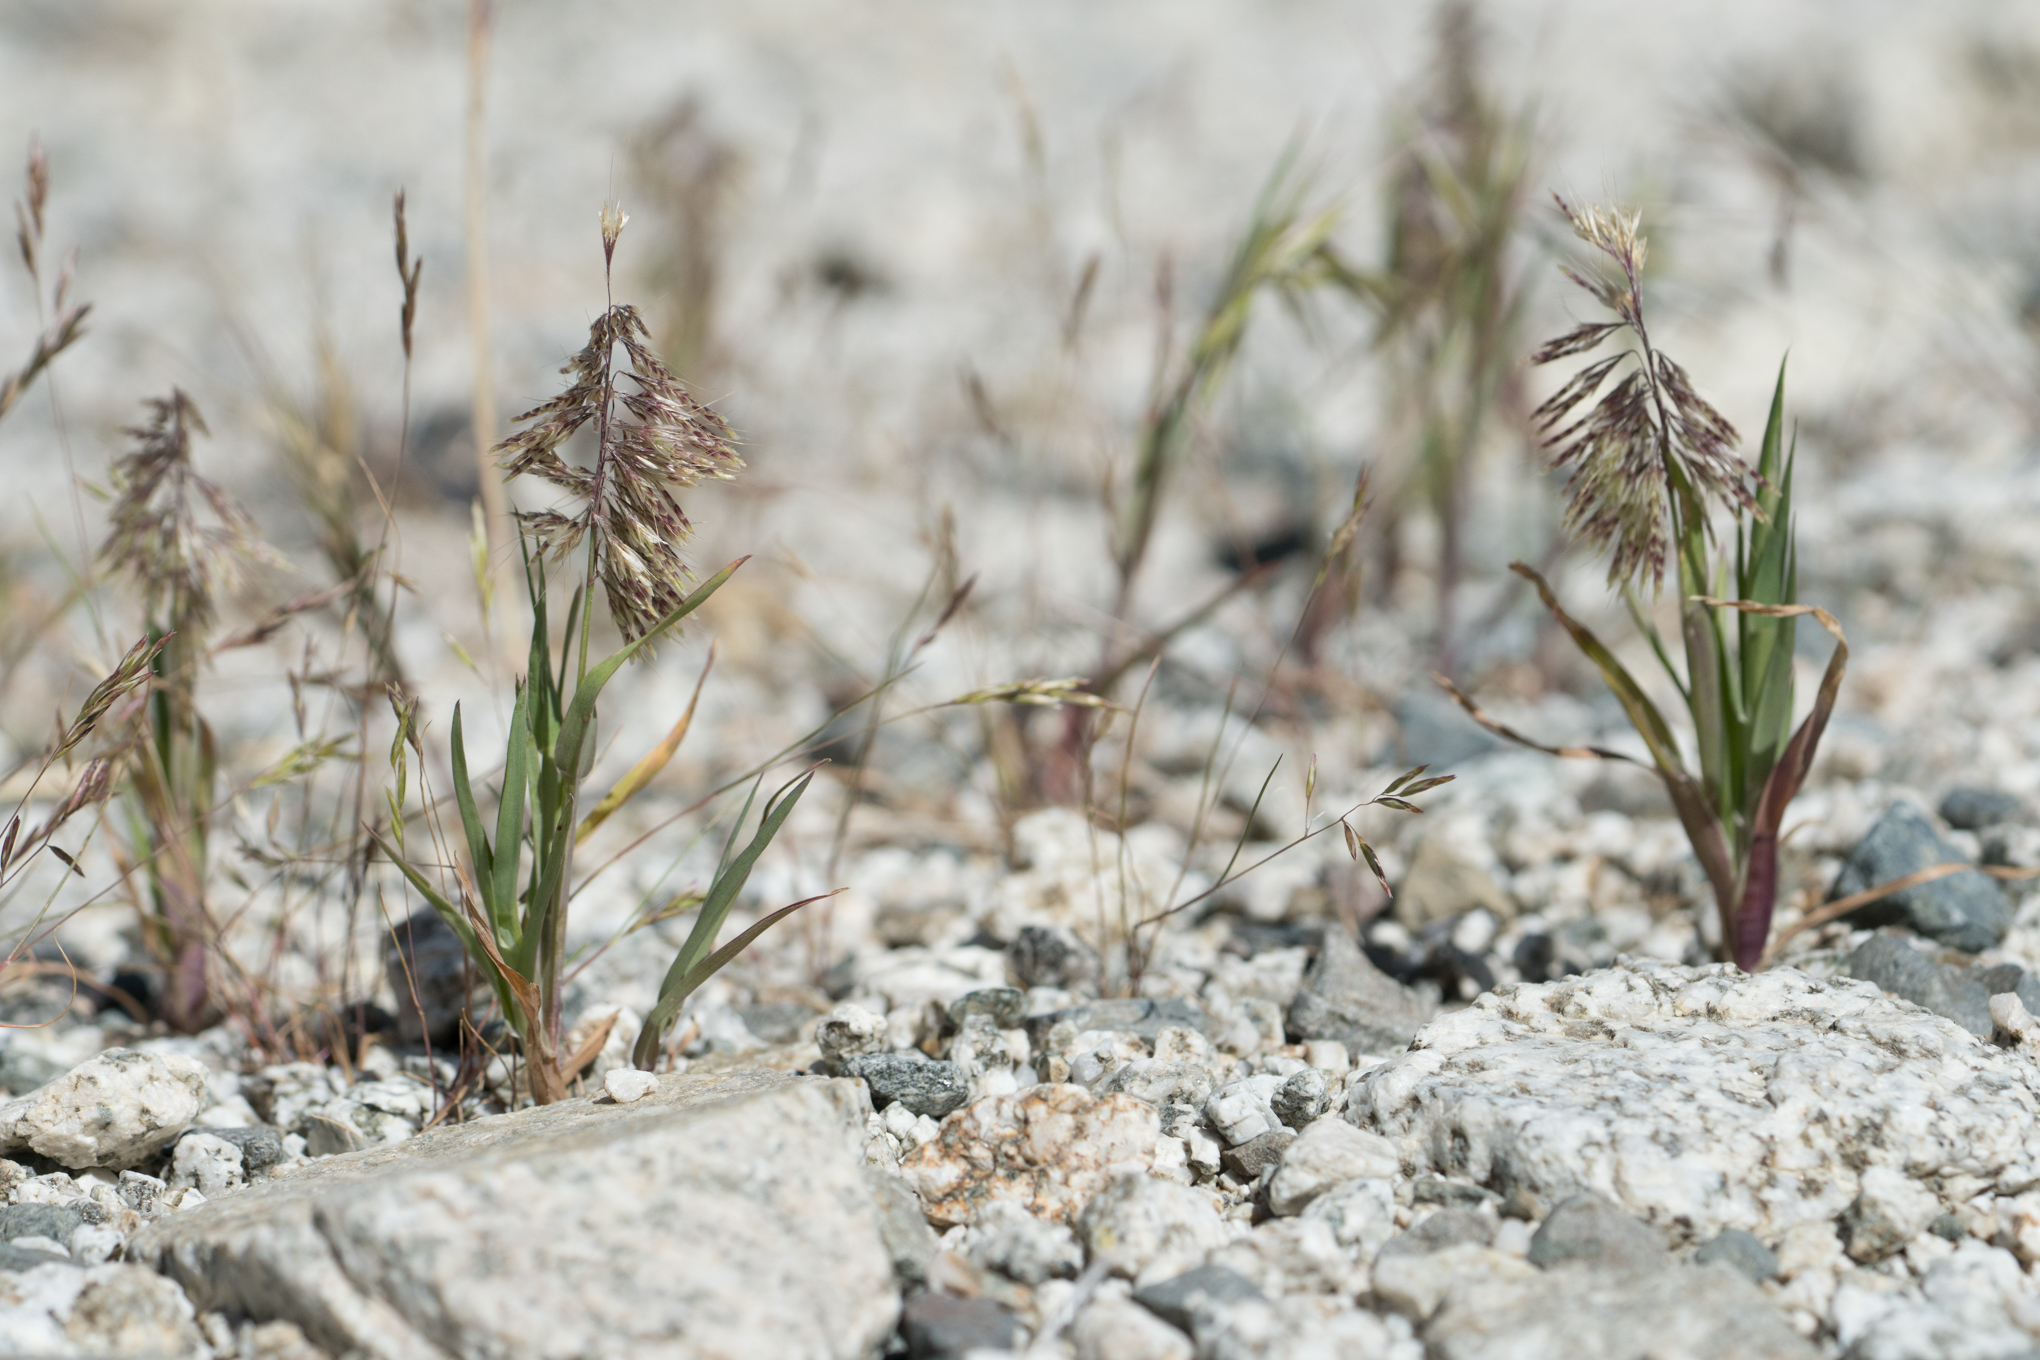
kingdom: Plantae
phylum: Tracheophyta
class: Liliopsida
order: Poales
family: Poaceae
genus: Lamarckia
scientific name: Lamarckia aurea
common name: Golden dog's-tail
